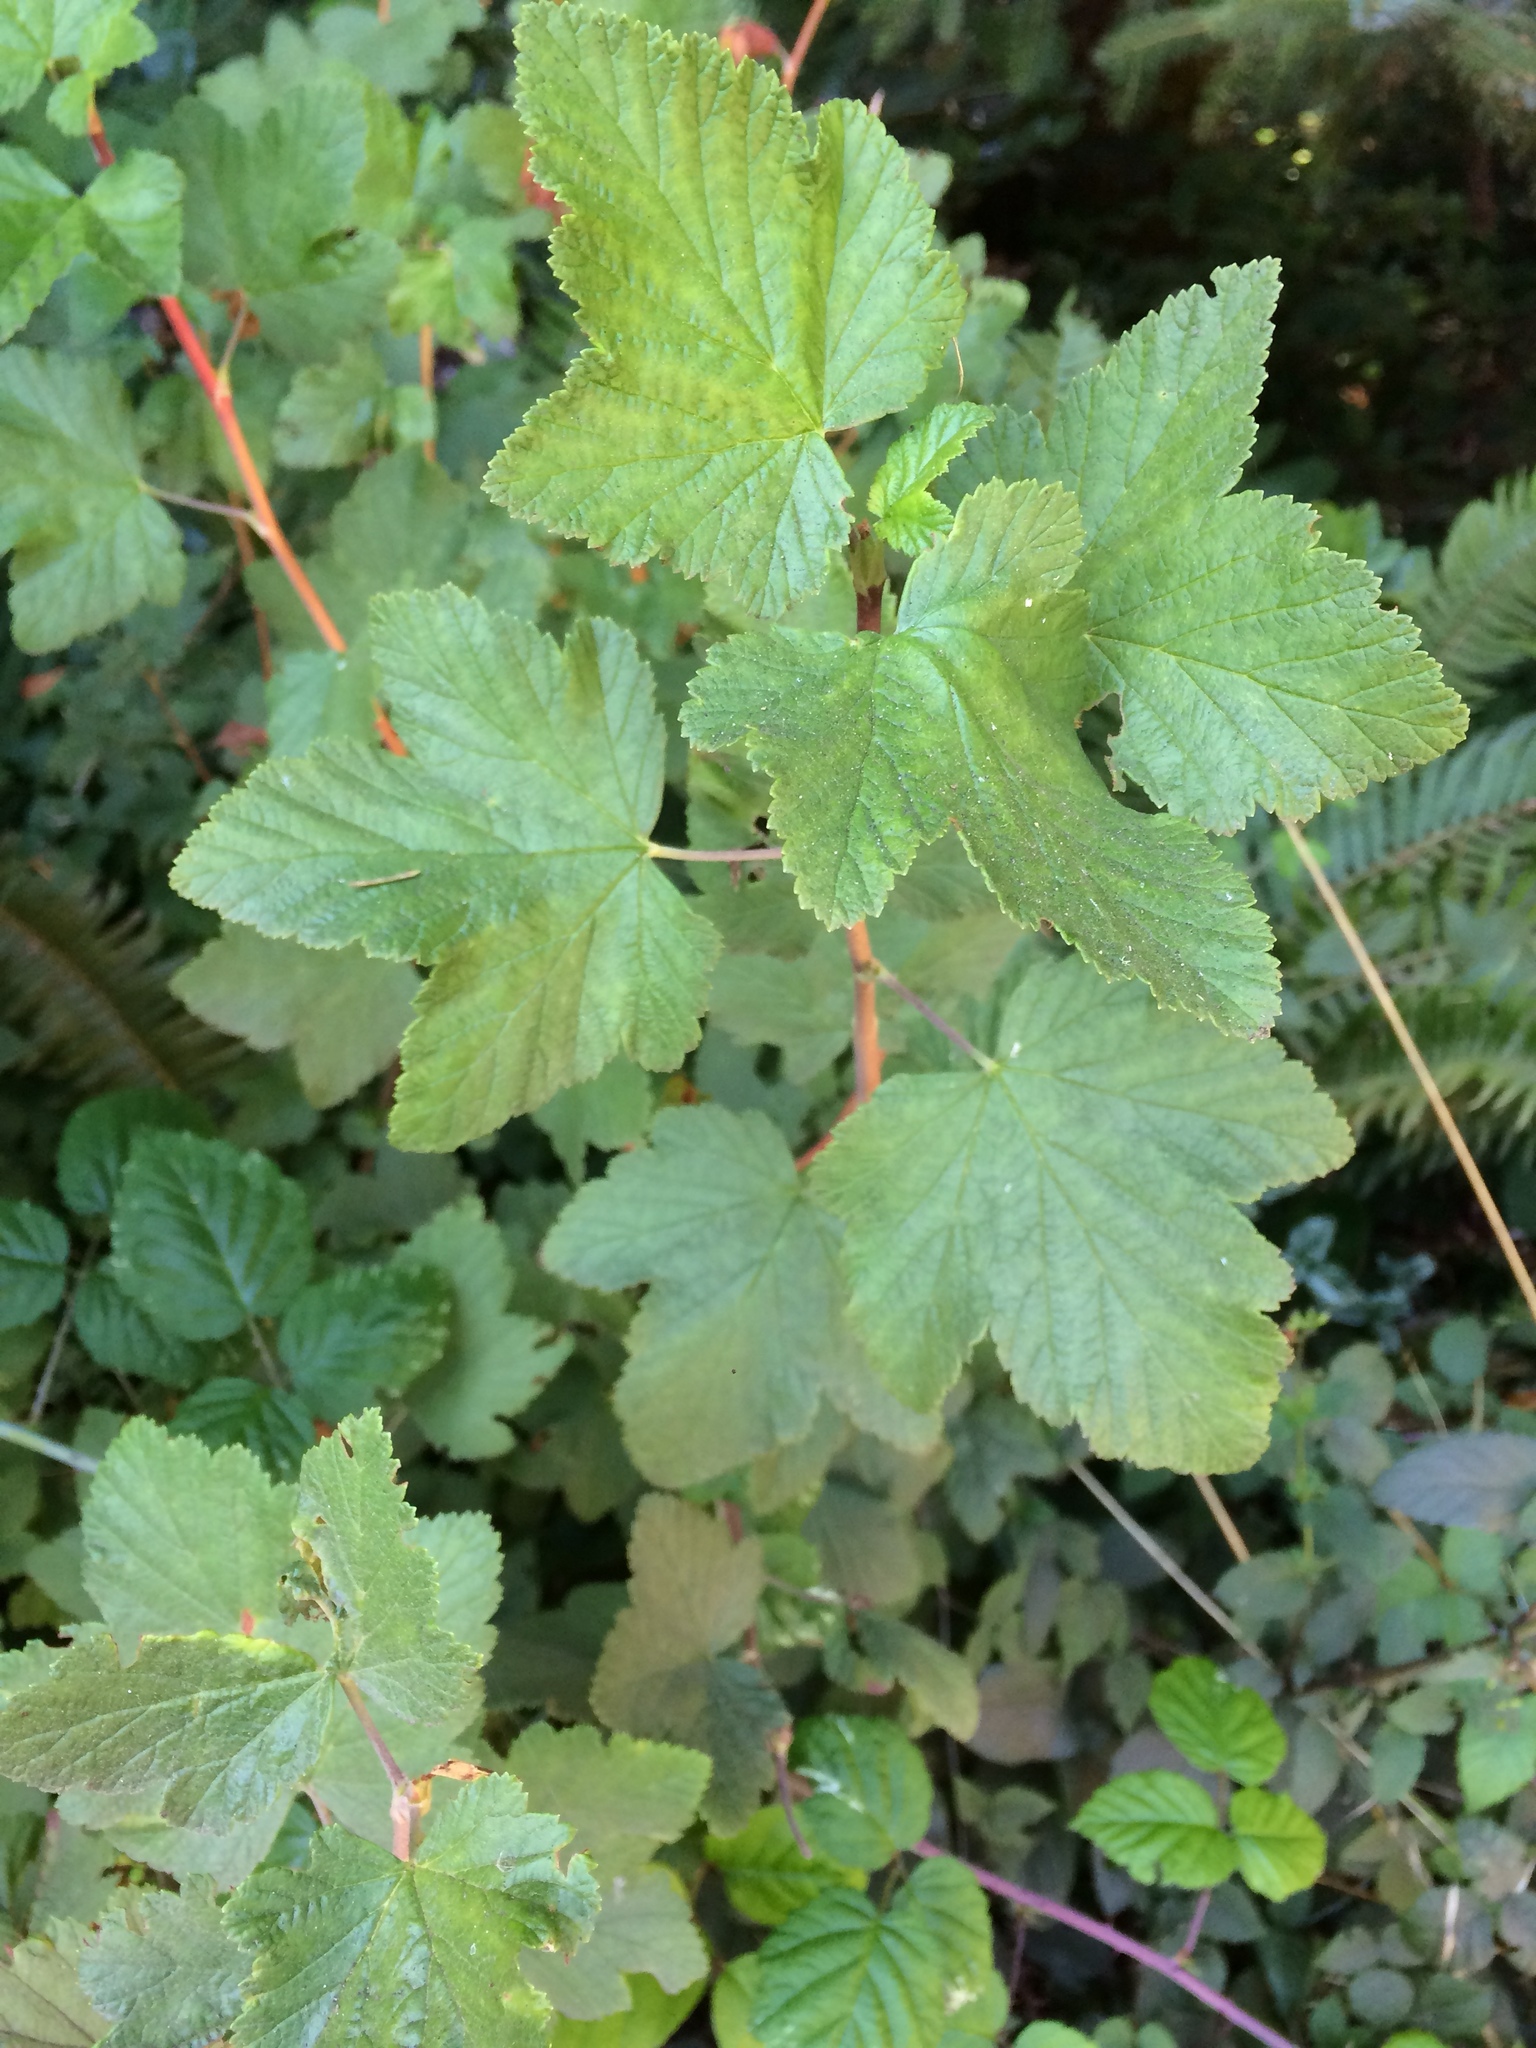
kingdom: Plantae
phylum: Tracheophyta
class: Magnoliopsida
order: Saxifragales
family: Grossulariaceae
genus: Ribes
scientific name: Ribes sanguineum
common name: Flowering currant
